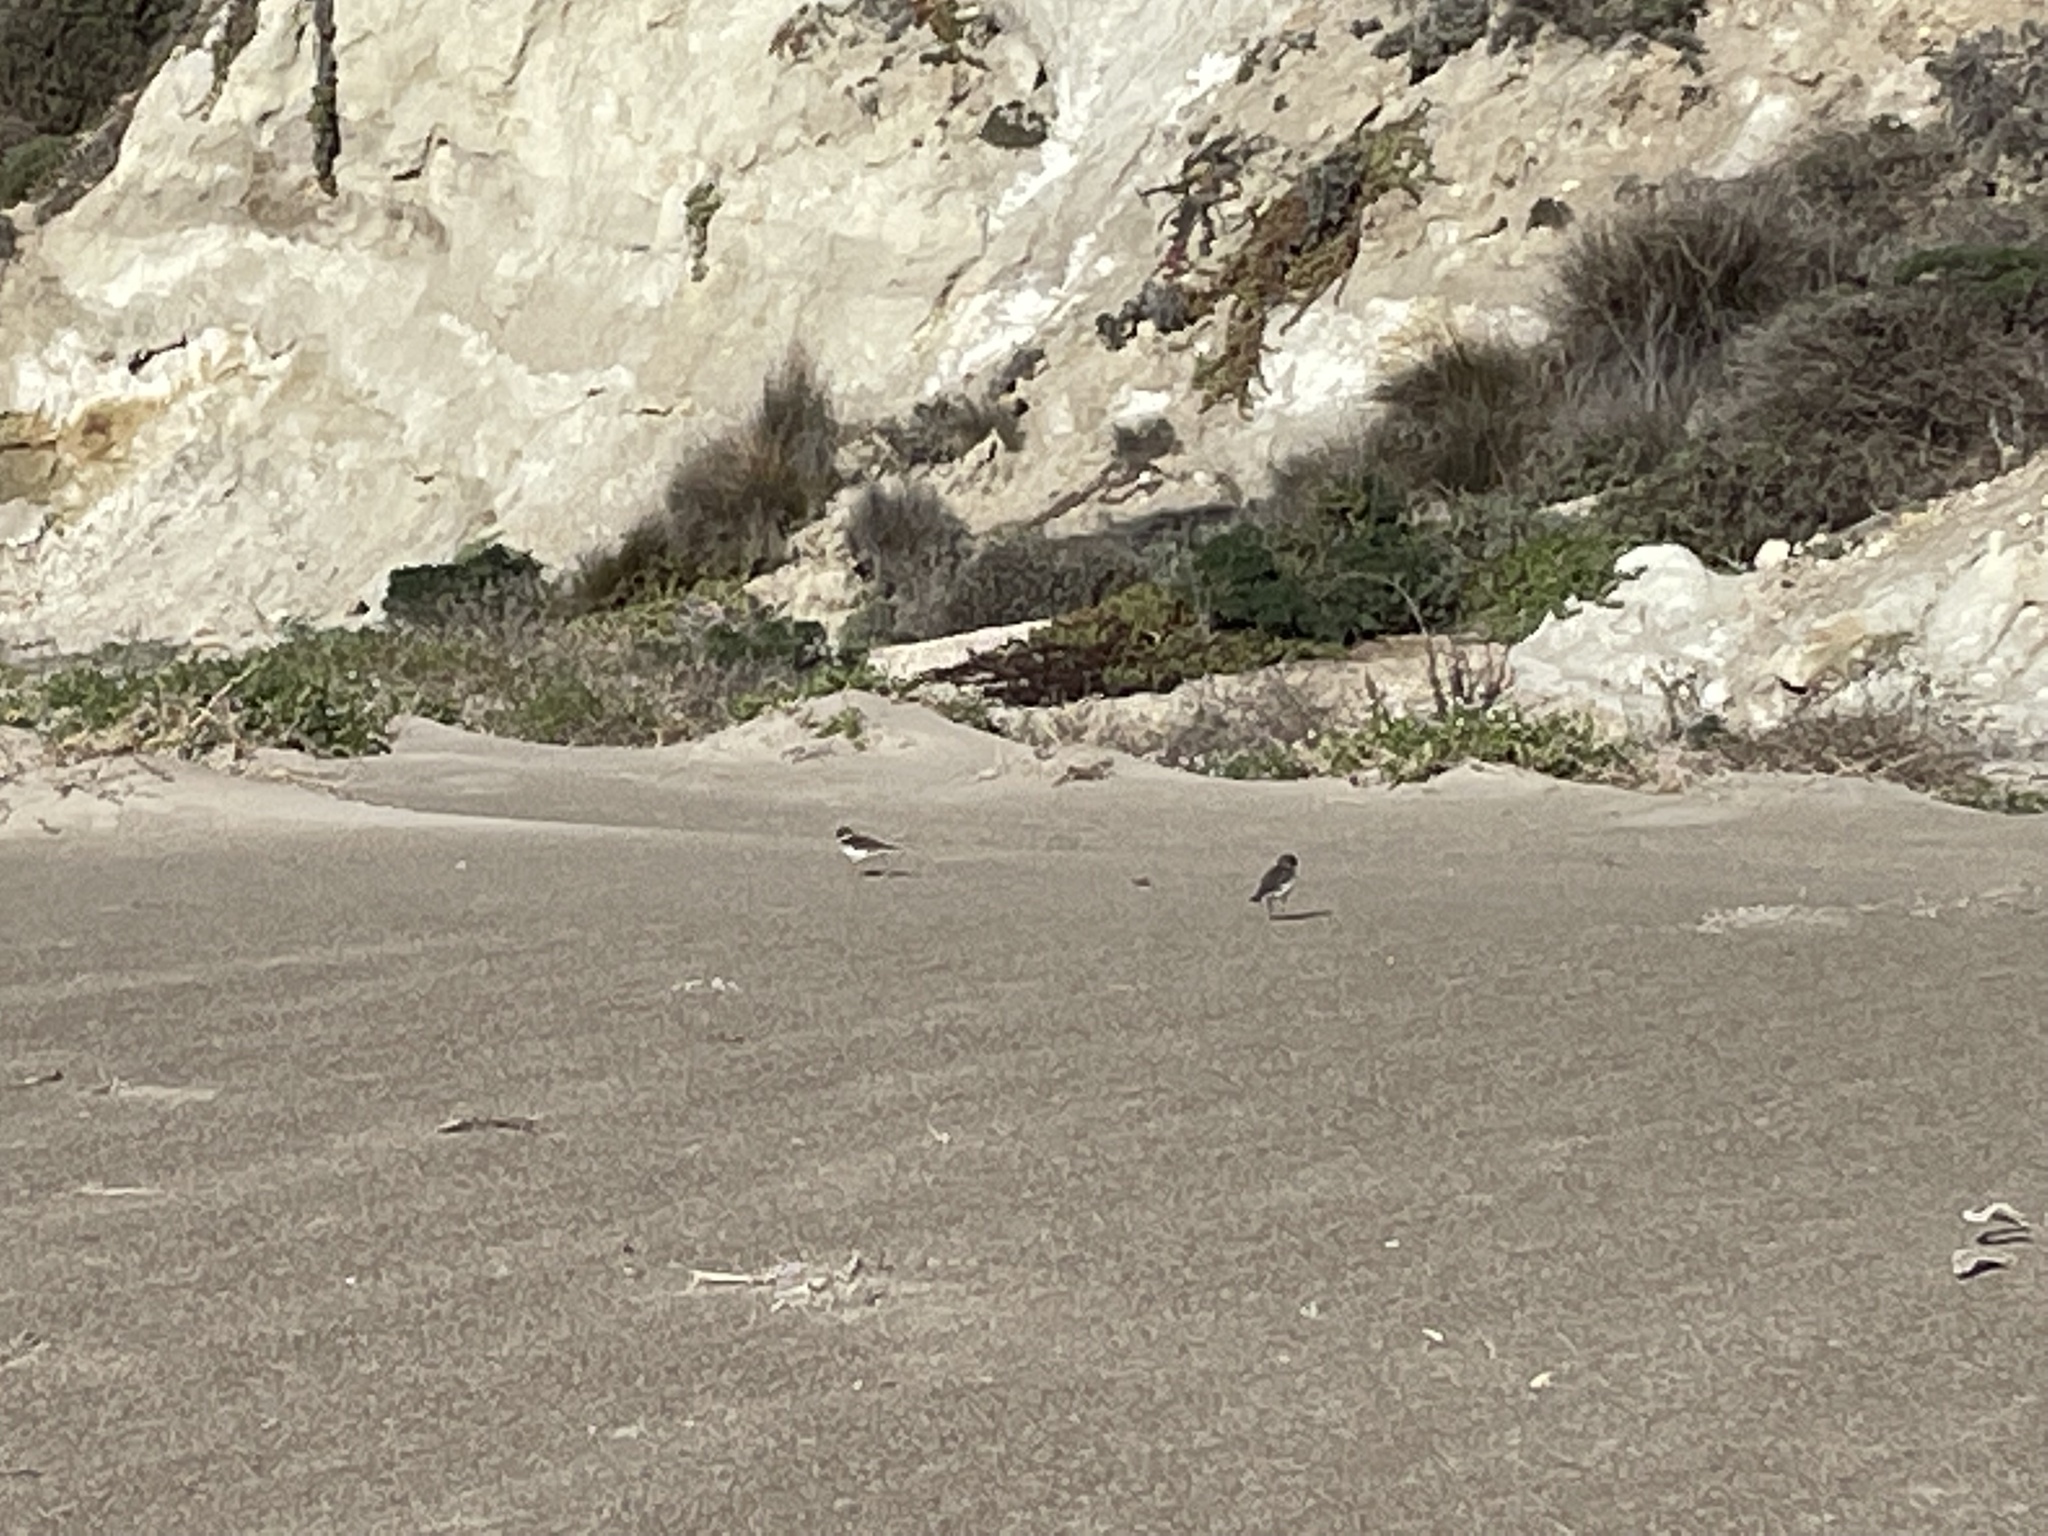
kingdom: Animalia
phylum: Chordata
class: Aves
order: Charadriiformes
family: Charadriidae
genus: Charadrius
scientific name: Charadrius semipalmatus
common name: Semipalmated plover
